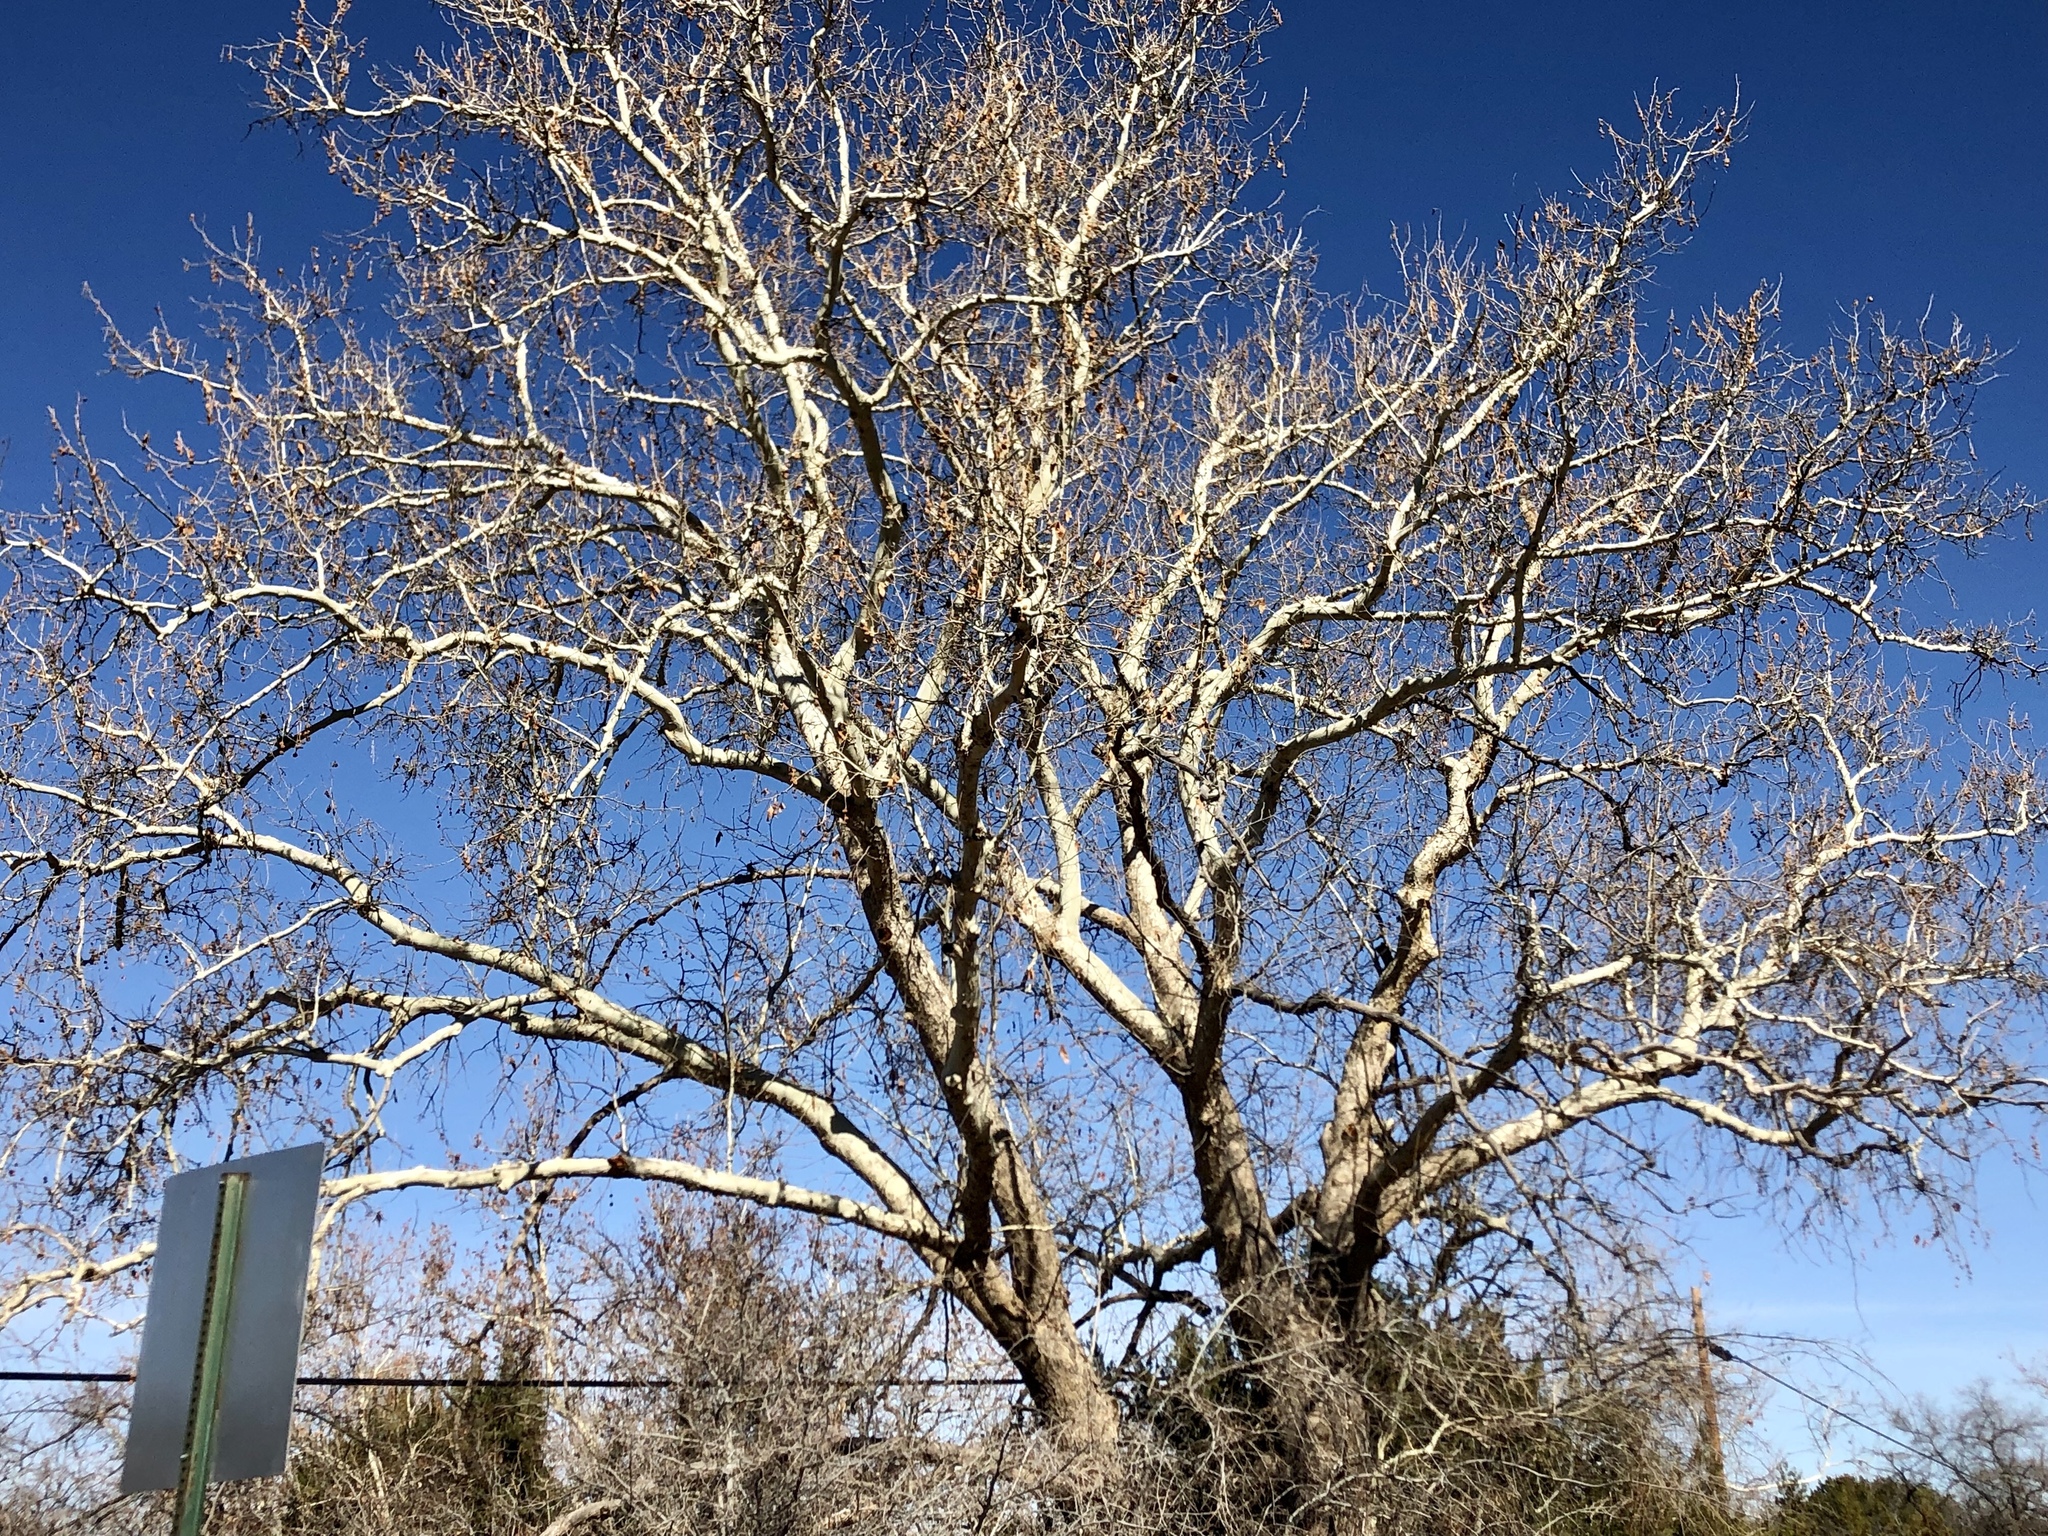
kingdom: Plantae
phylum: Tracheophyta
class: Magnoliopsida
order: Proteales
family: Platanaceae
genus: Platanus
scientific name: Platanus wrightii
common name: Arizona sycamore
